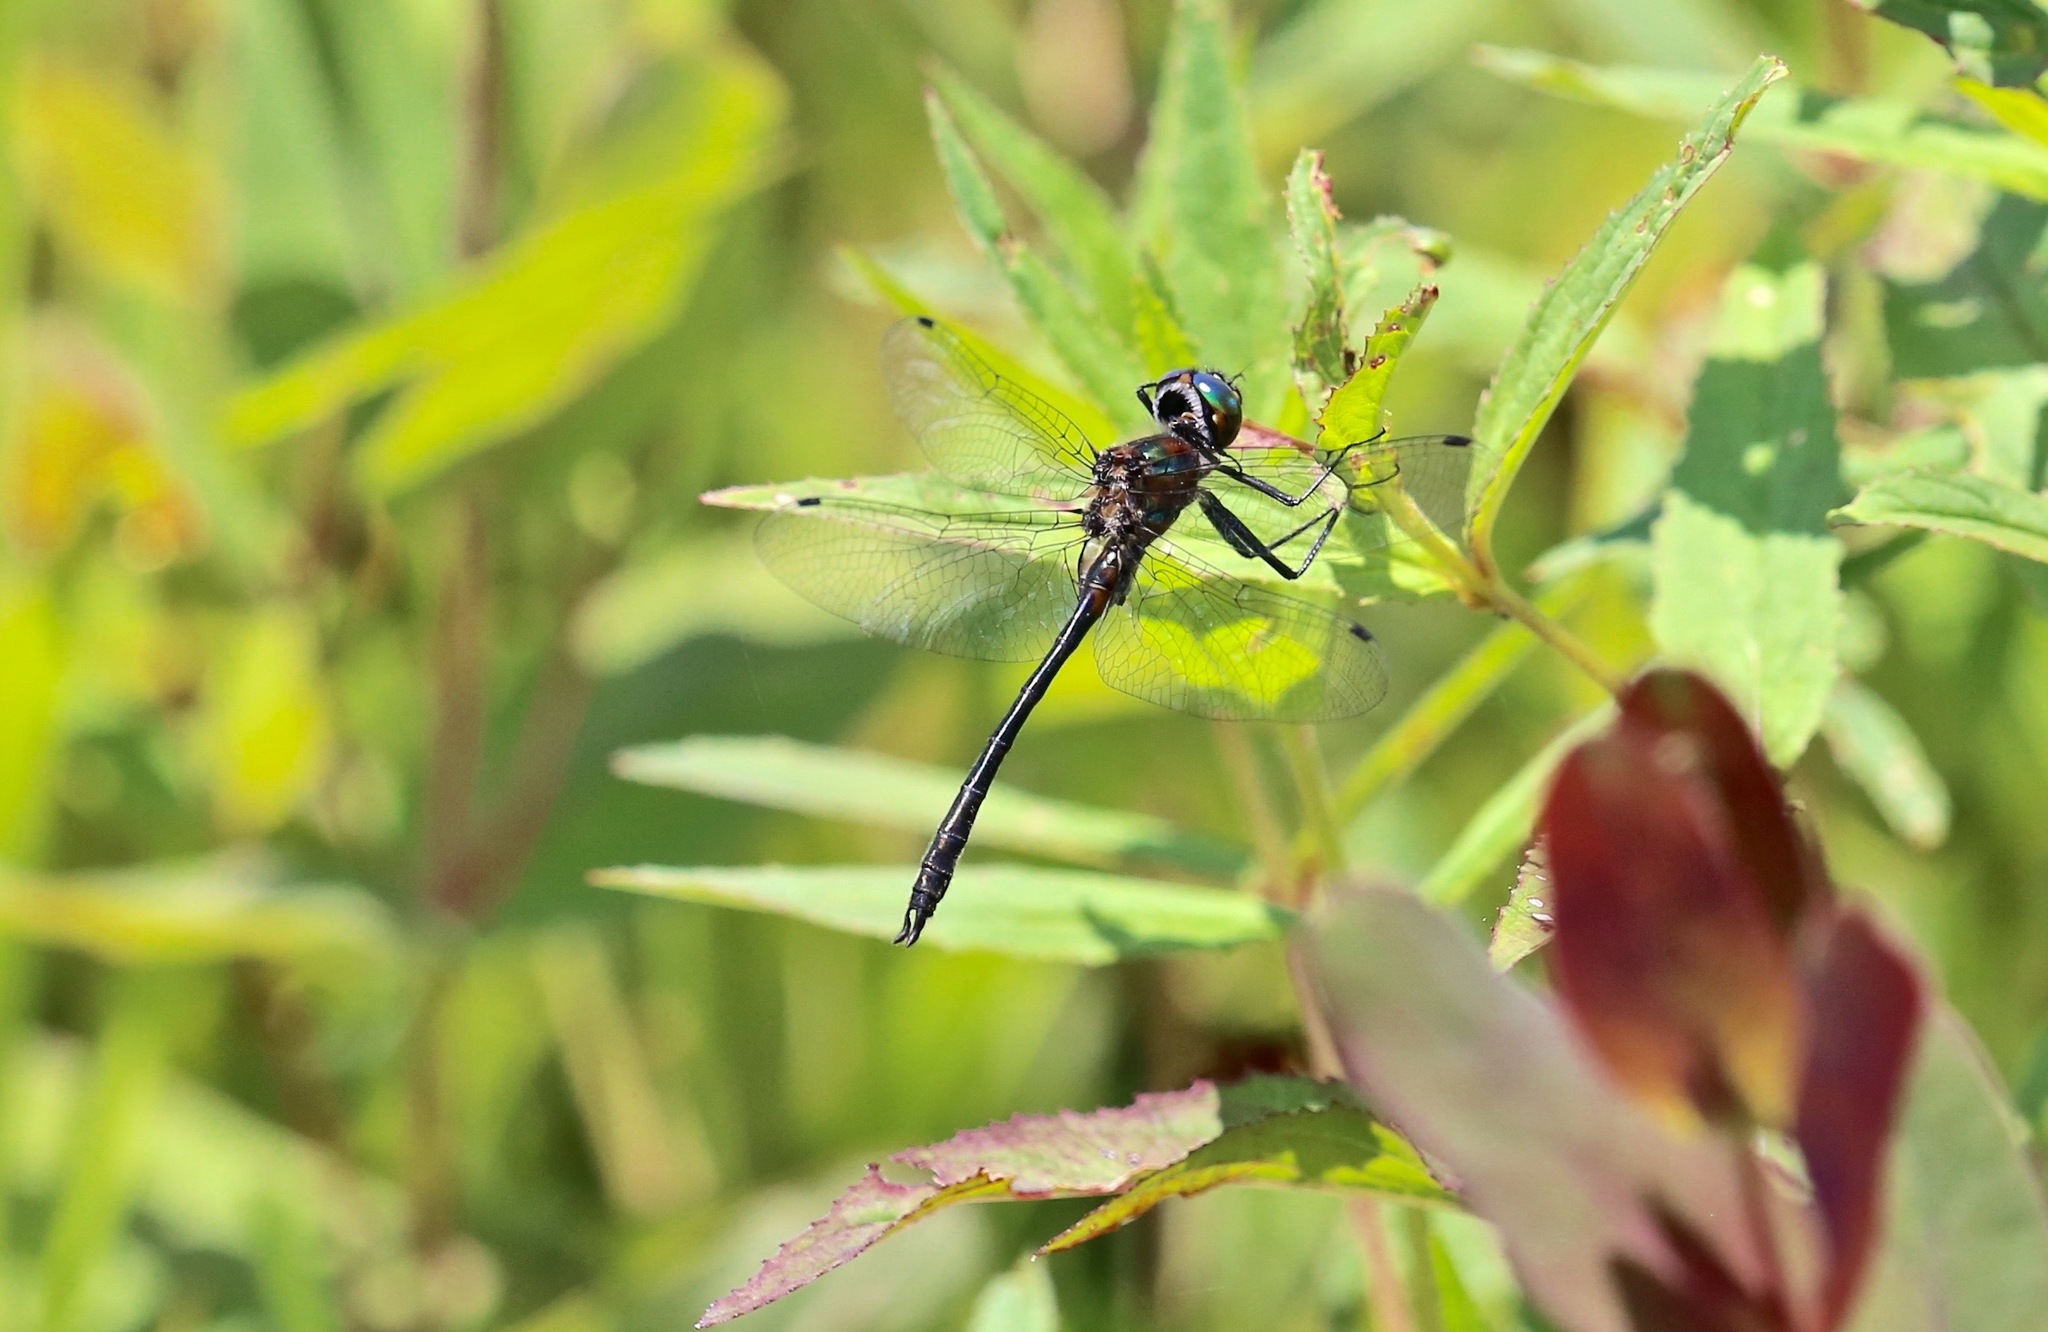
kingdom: Animalia
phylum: Arthropoda
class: Insecta
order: Odonata
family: Corduliidae
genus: Dorocordulia
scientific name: Dorocordulia lepida
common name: Petite emerald
